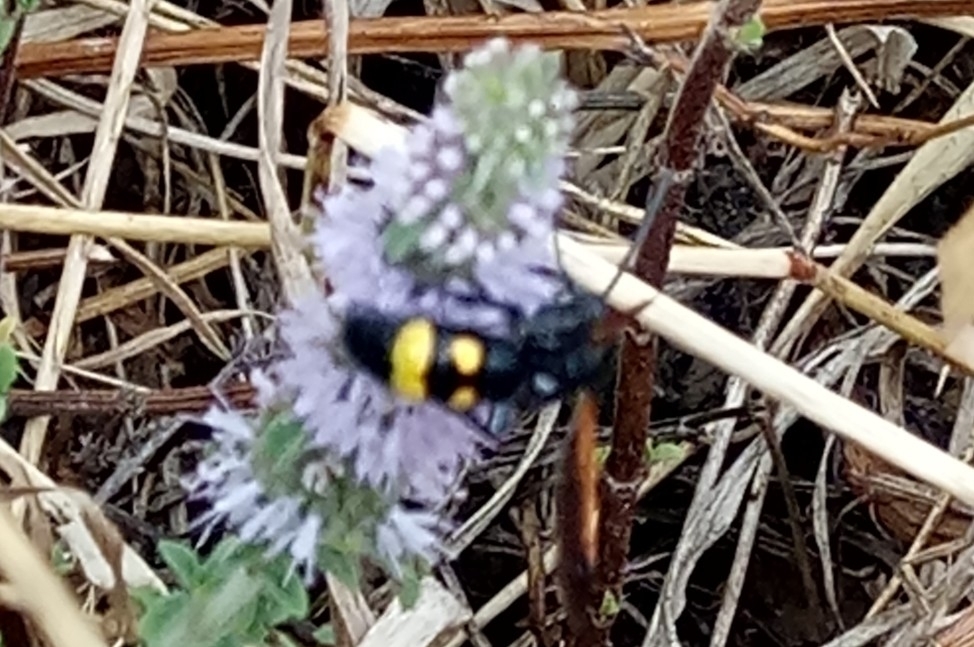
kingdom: Animalia
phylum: Arthropoda
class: Insecta
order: Hymenoptera
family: Scoliidae
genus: Megascolia
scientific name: Megascolia maculata
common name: Mammoth wasp
